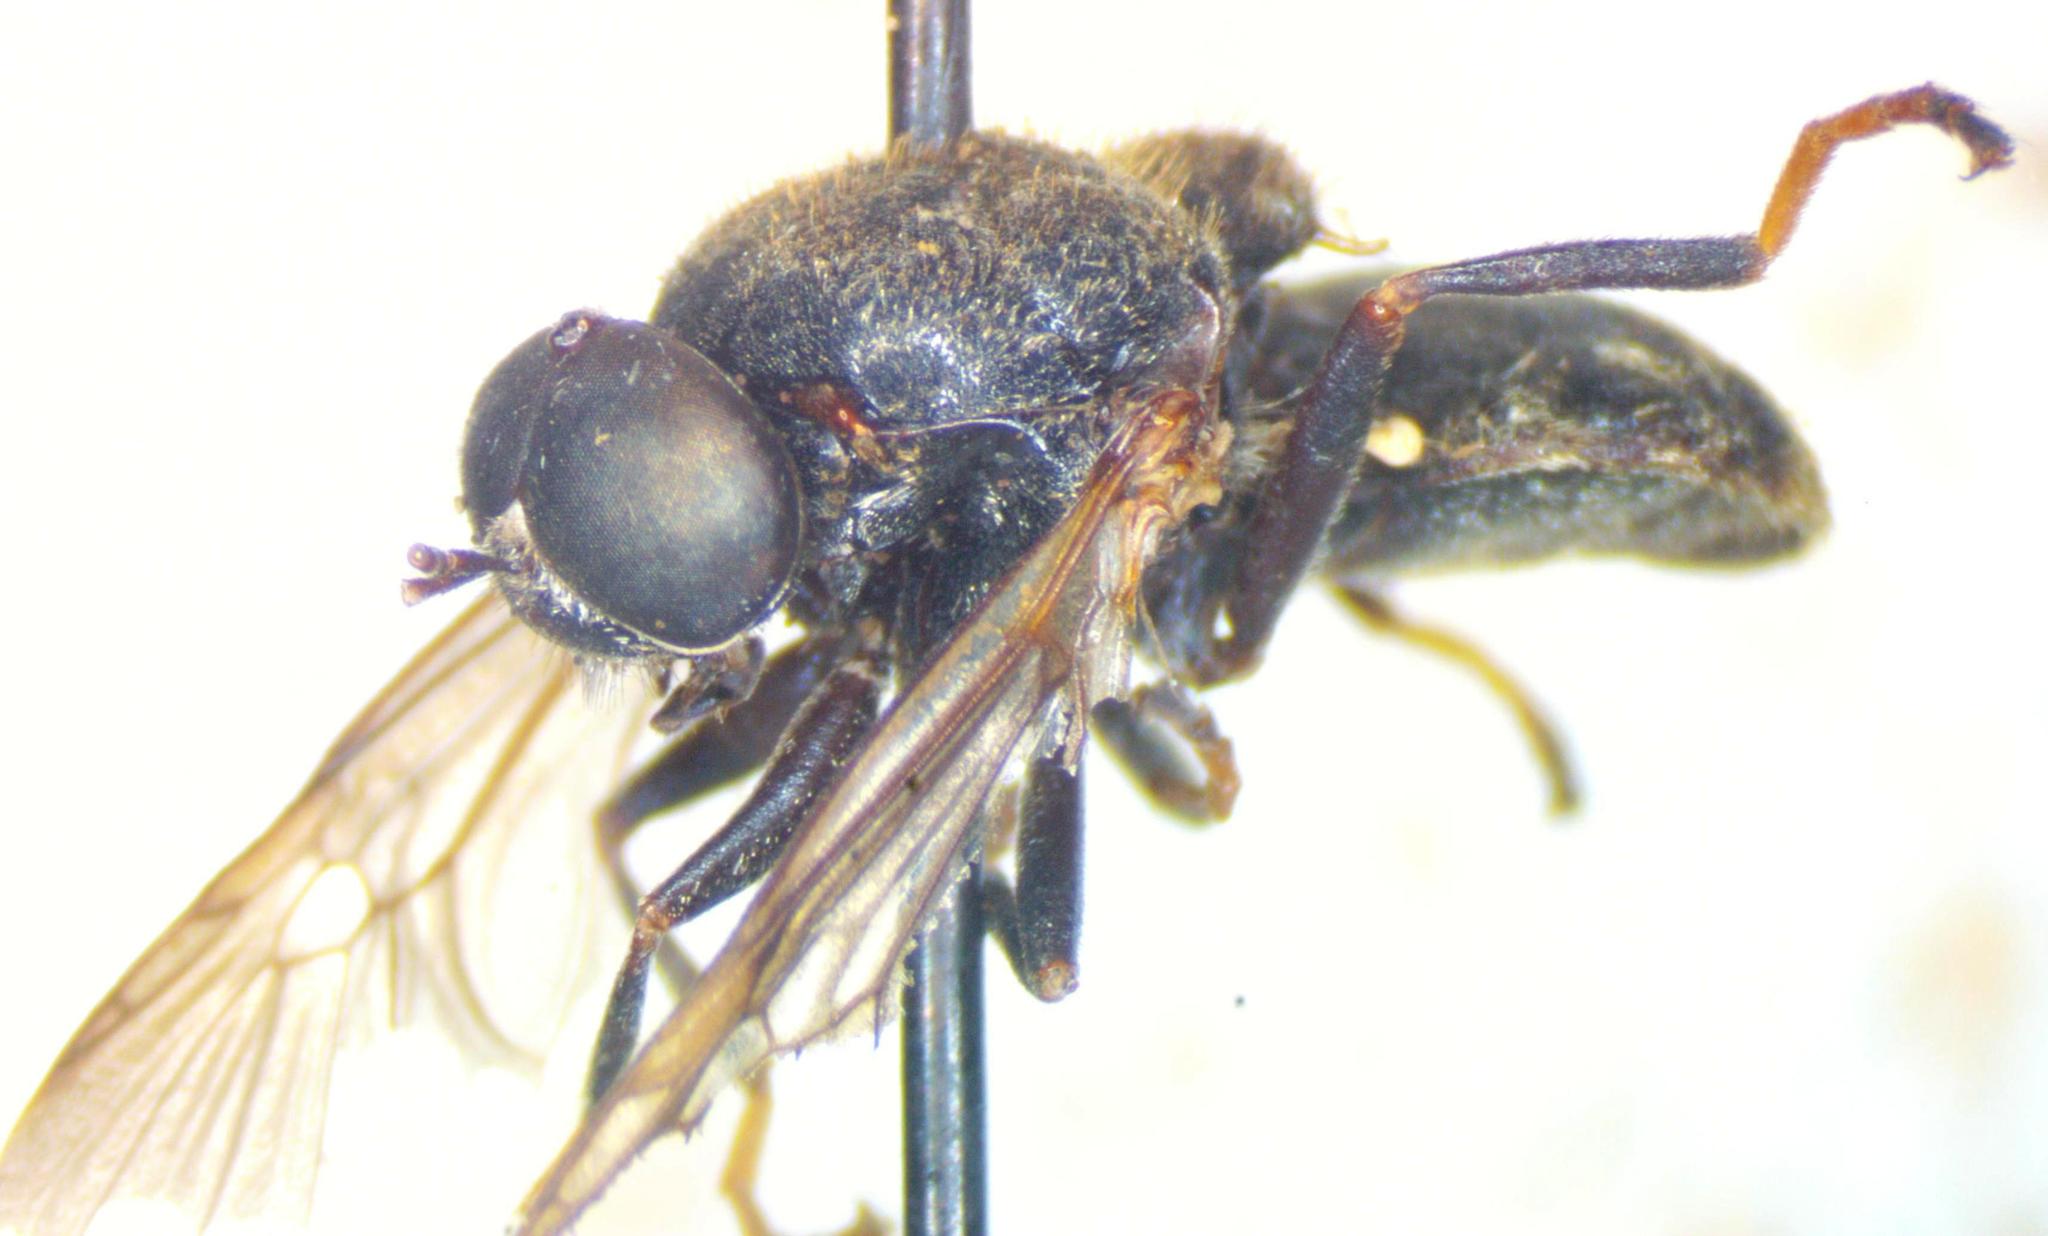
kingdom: Animalia
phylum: Arthropoda
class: Insecta
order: Diptera
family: Stratiomyidae
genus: Dicyphoma
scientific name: Dicyphoma schaefferi
